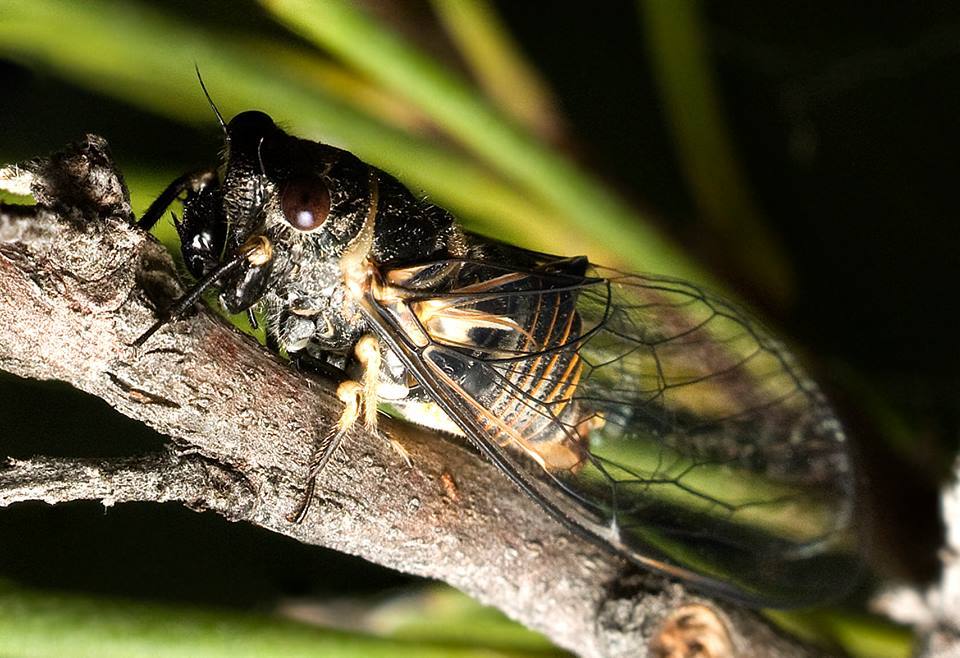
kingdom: Animalia
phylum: Arthropoda
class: Insecta
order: Hemiptera
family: Cicadidae
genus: Popplepsalta
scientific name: Popplepsalta ayrensis
